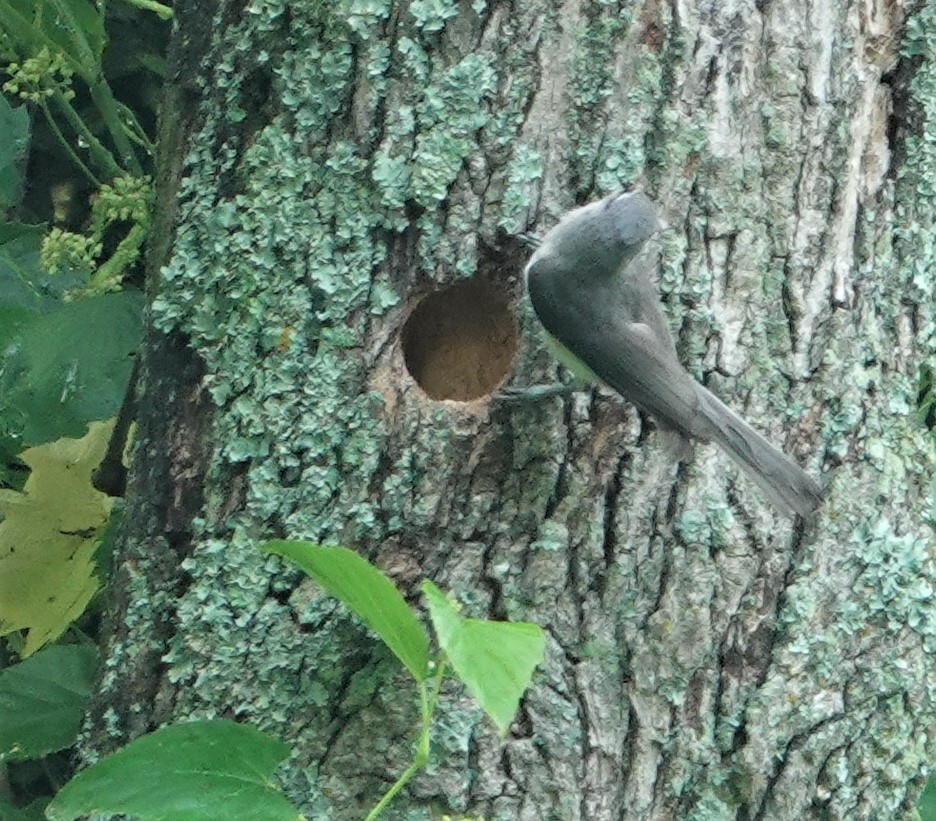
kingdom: Animalia
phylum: Chordata
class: Aves
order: Passeriformes
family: Paridae
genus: Baeolophus
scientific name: Baeolophus bicolor
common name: Tufted titmouse
